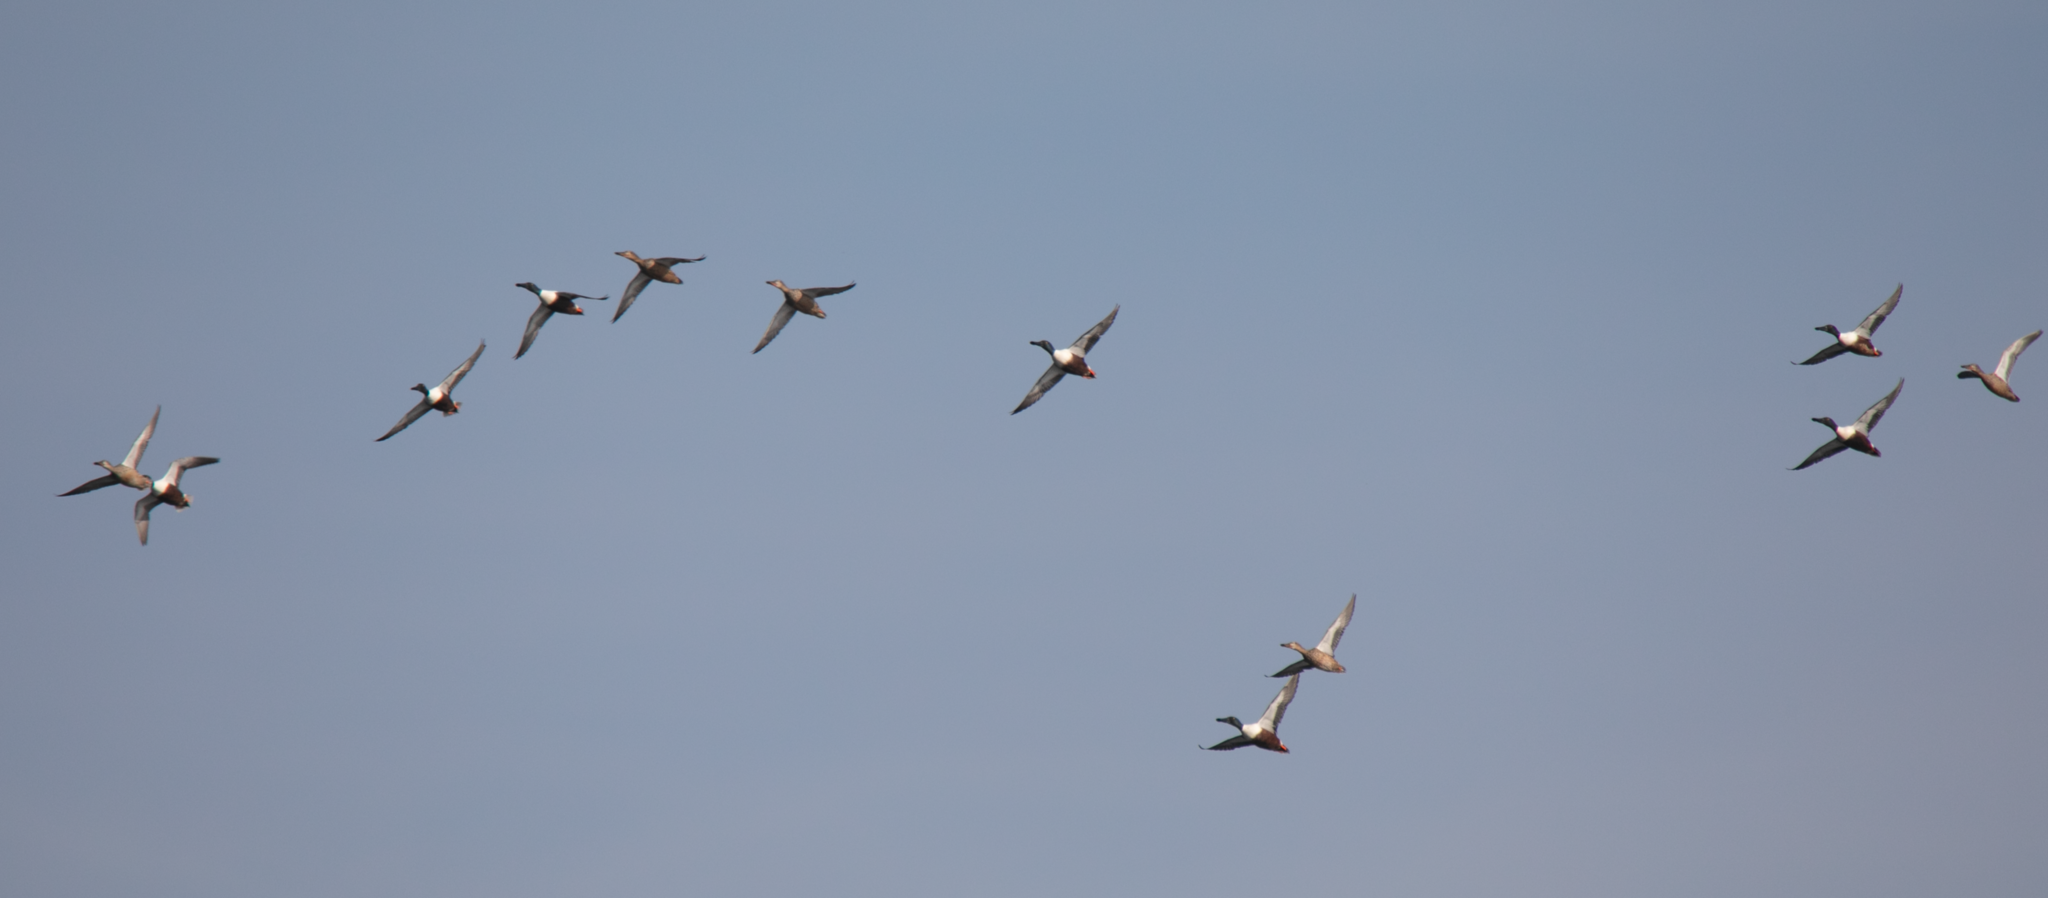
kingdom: Animalia
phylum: Chordata
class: Aves
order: Anseriformes
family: Anatidae
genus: Spatula
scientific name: Spatula clypeata
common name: Northern shoveler
